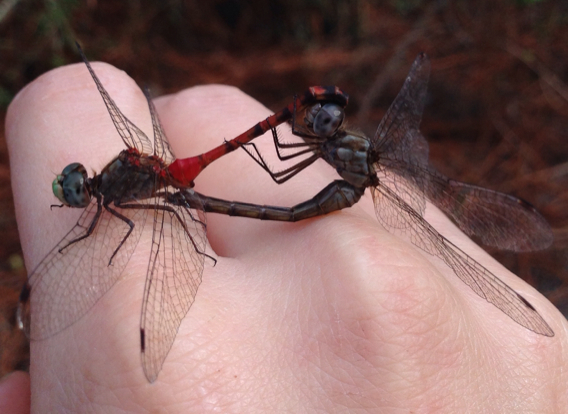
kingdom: Animalia
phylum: Arthropoda
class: Insecta
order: Odonata
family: Libellulidae
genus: Sympetrum
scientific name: Sympetrum ambiguum
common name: Blue-faced meadowhawk
